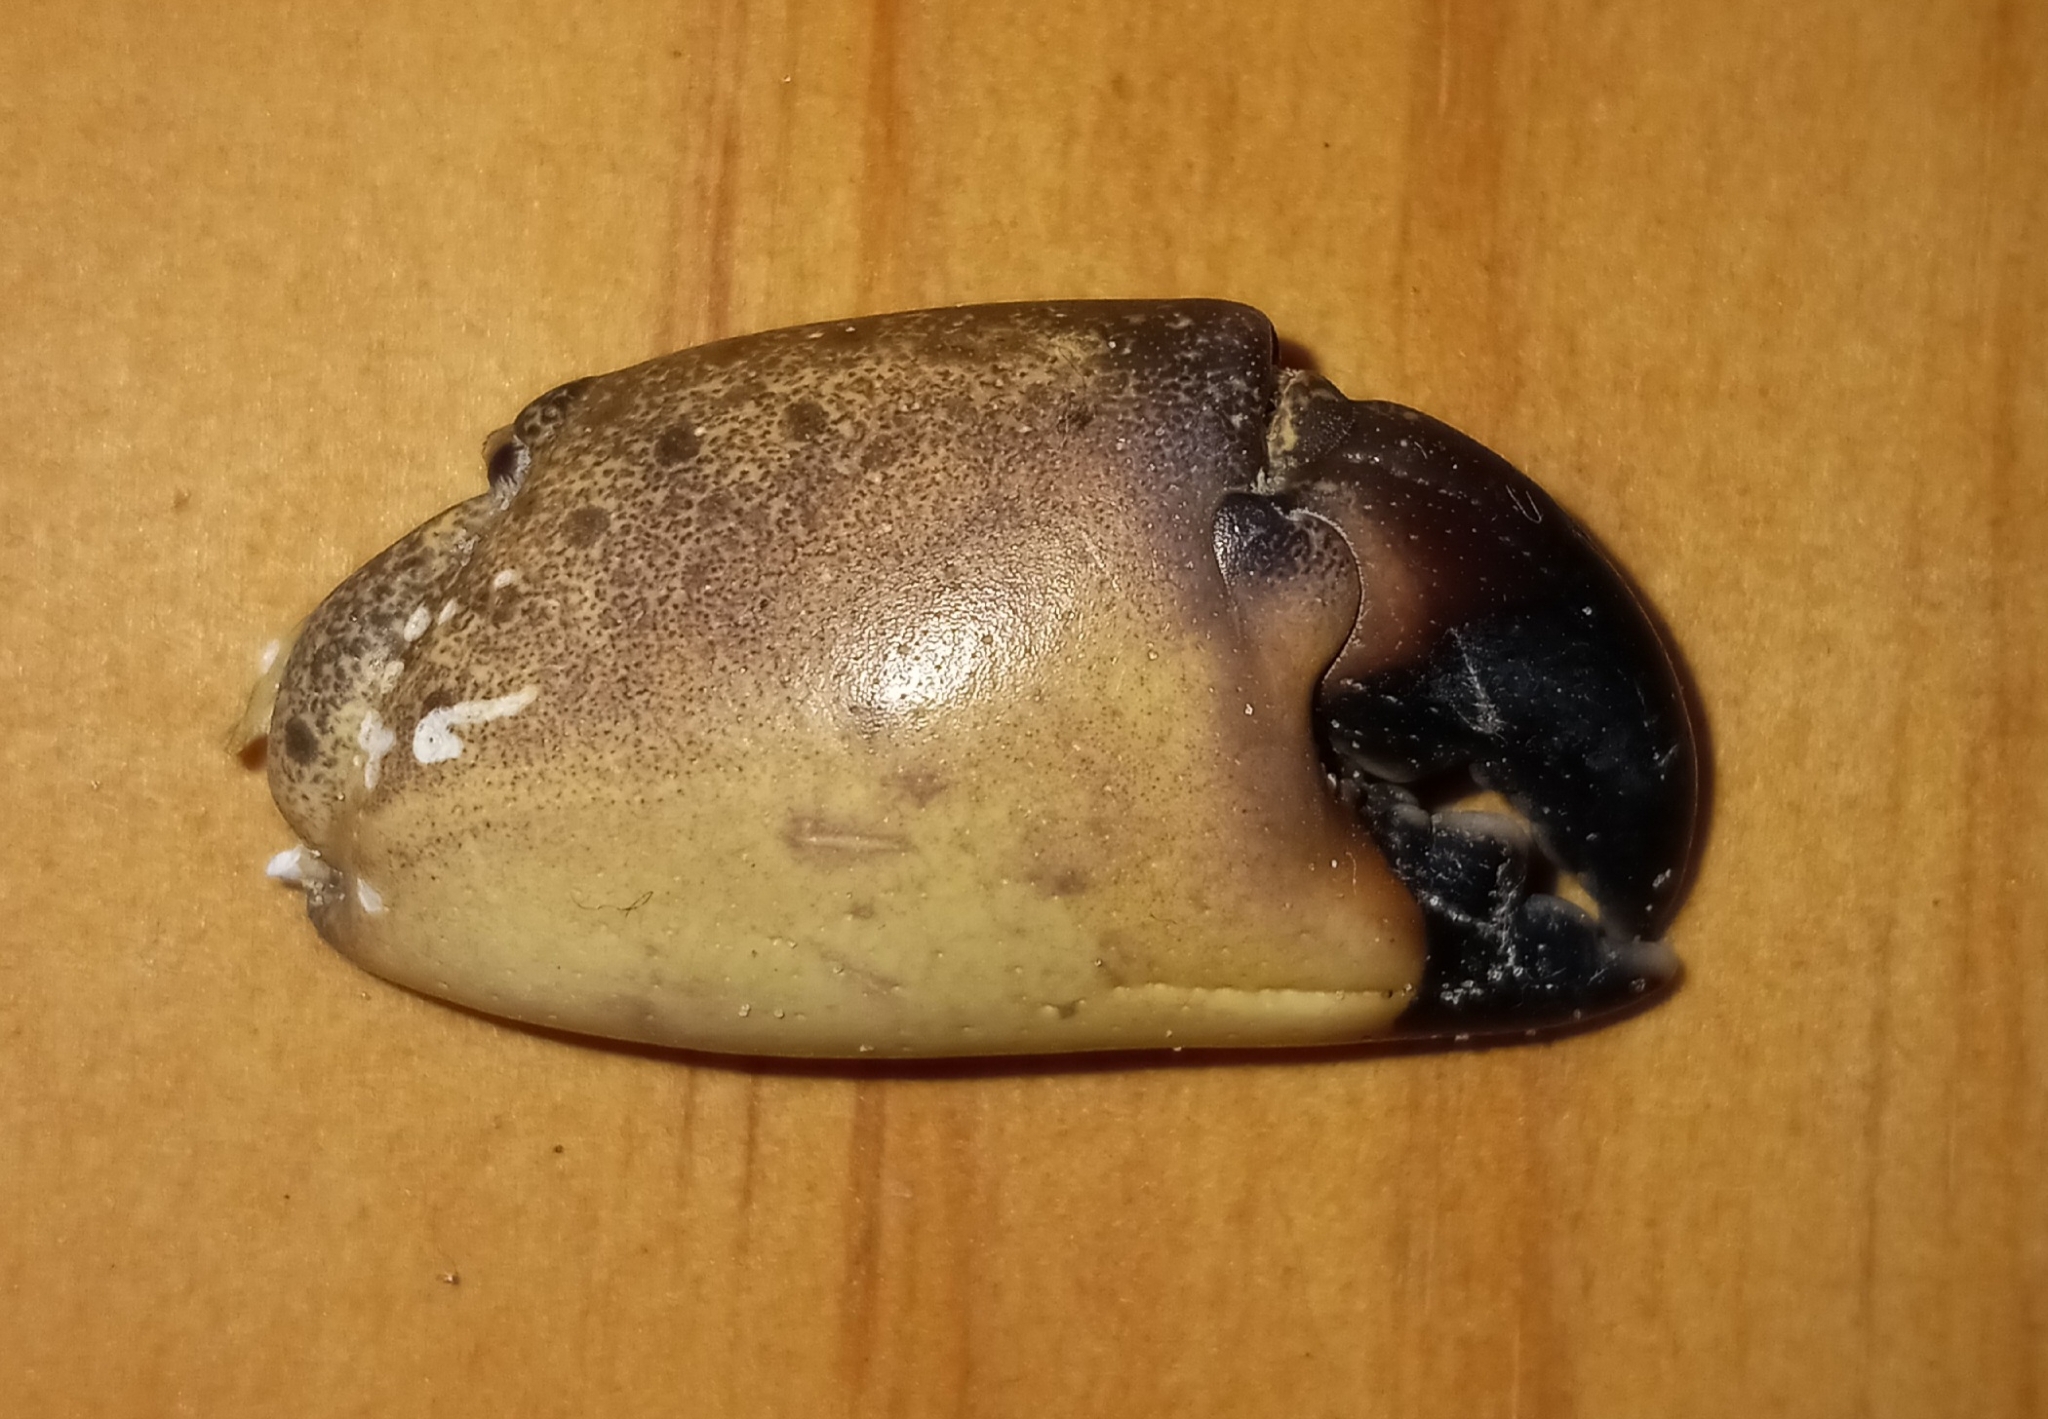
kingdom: Animalia
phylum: Arthropoda
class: Malacostraca
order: Decapoda
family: Menippidae
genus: Menippe
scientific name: Menippe mercenaria
